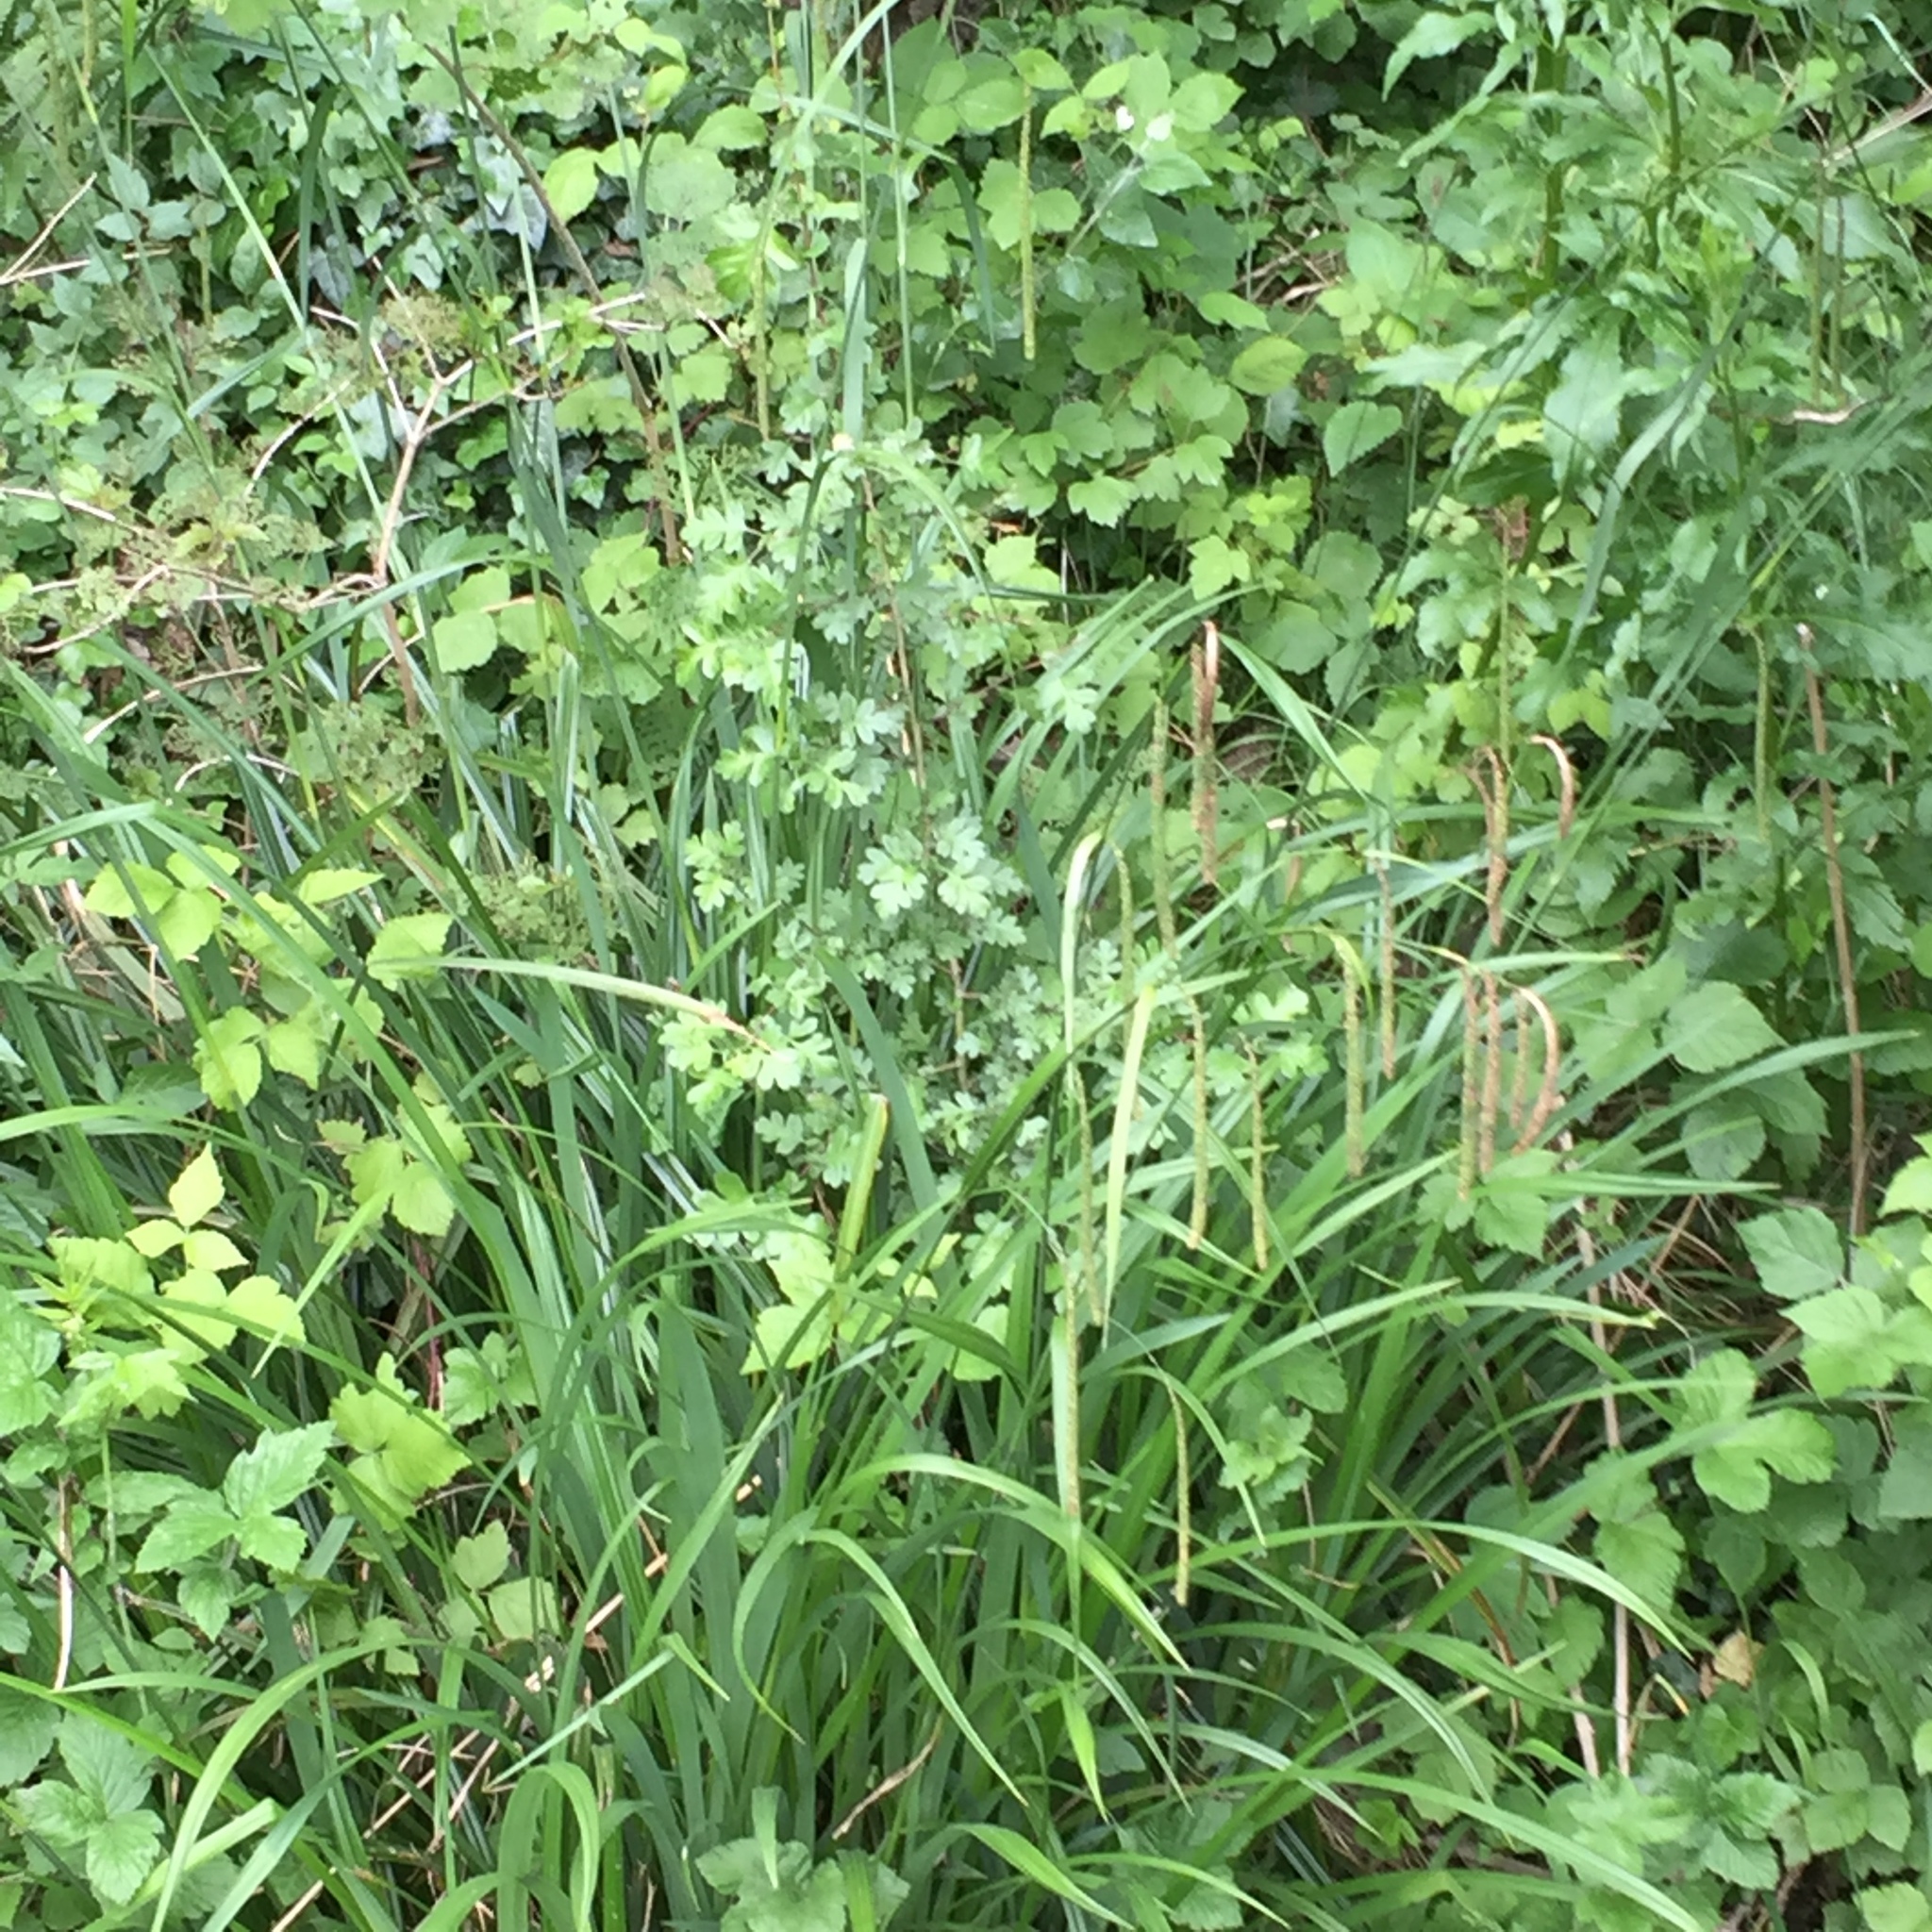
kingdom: Plantae
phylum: Tracheophyta
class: Liliopsida
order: Poales
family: Cyperaceae
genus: Carex
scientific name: Carex pendula
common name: Pendulous sedge
